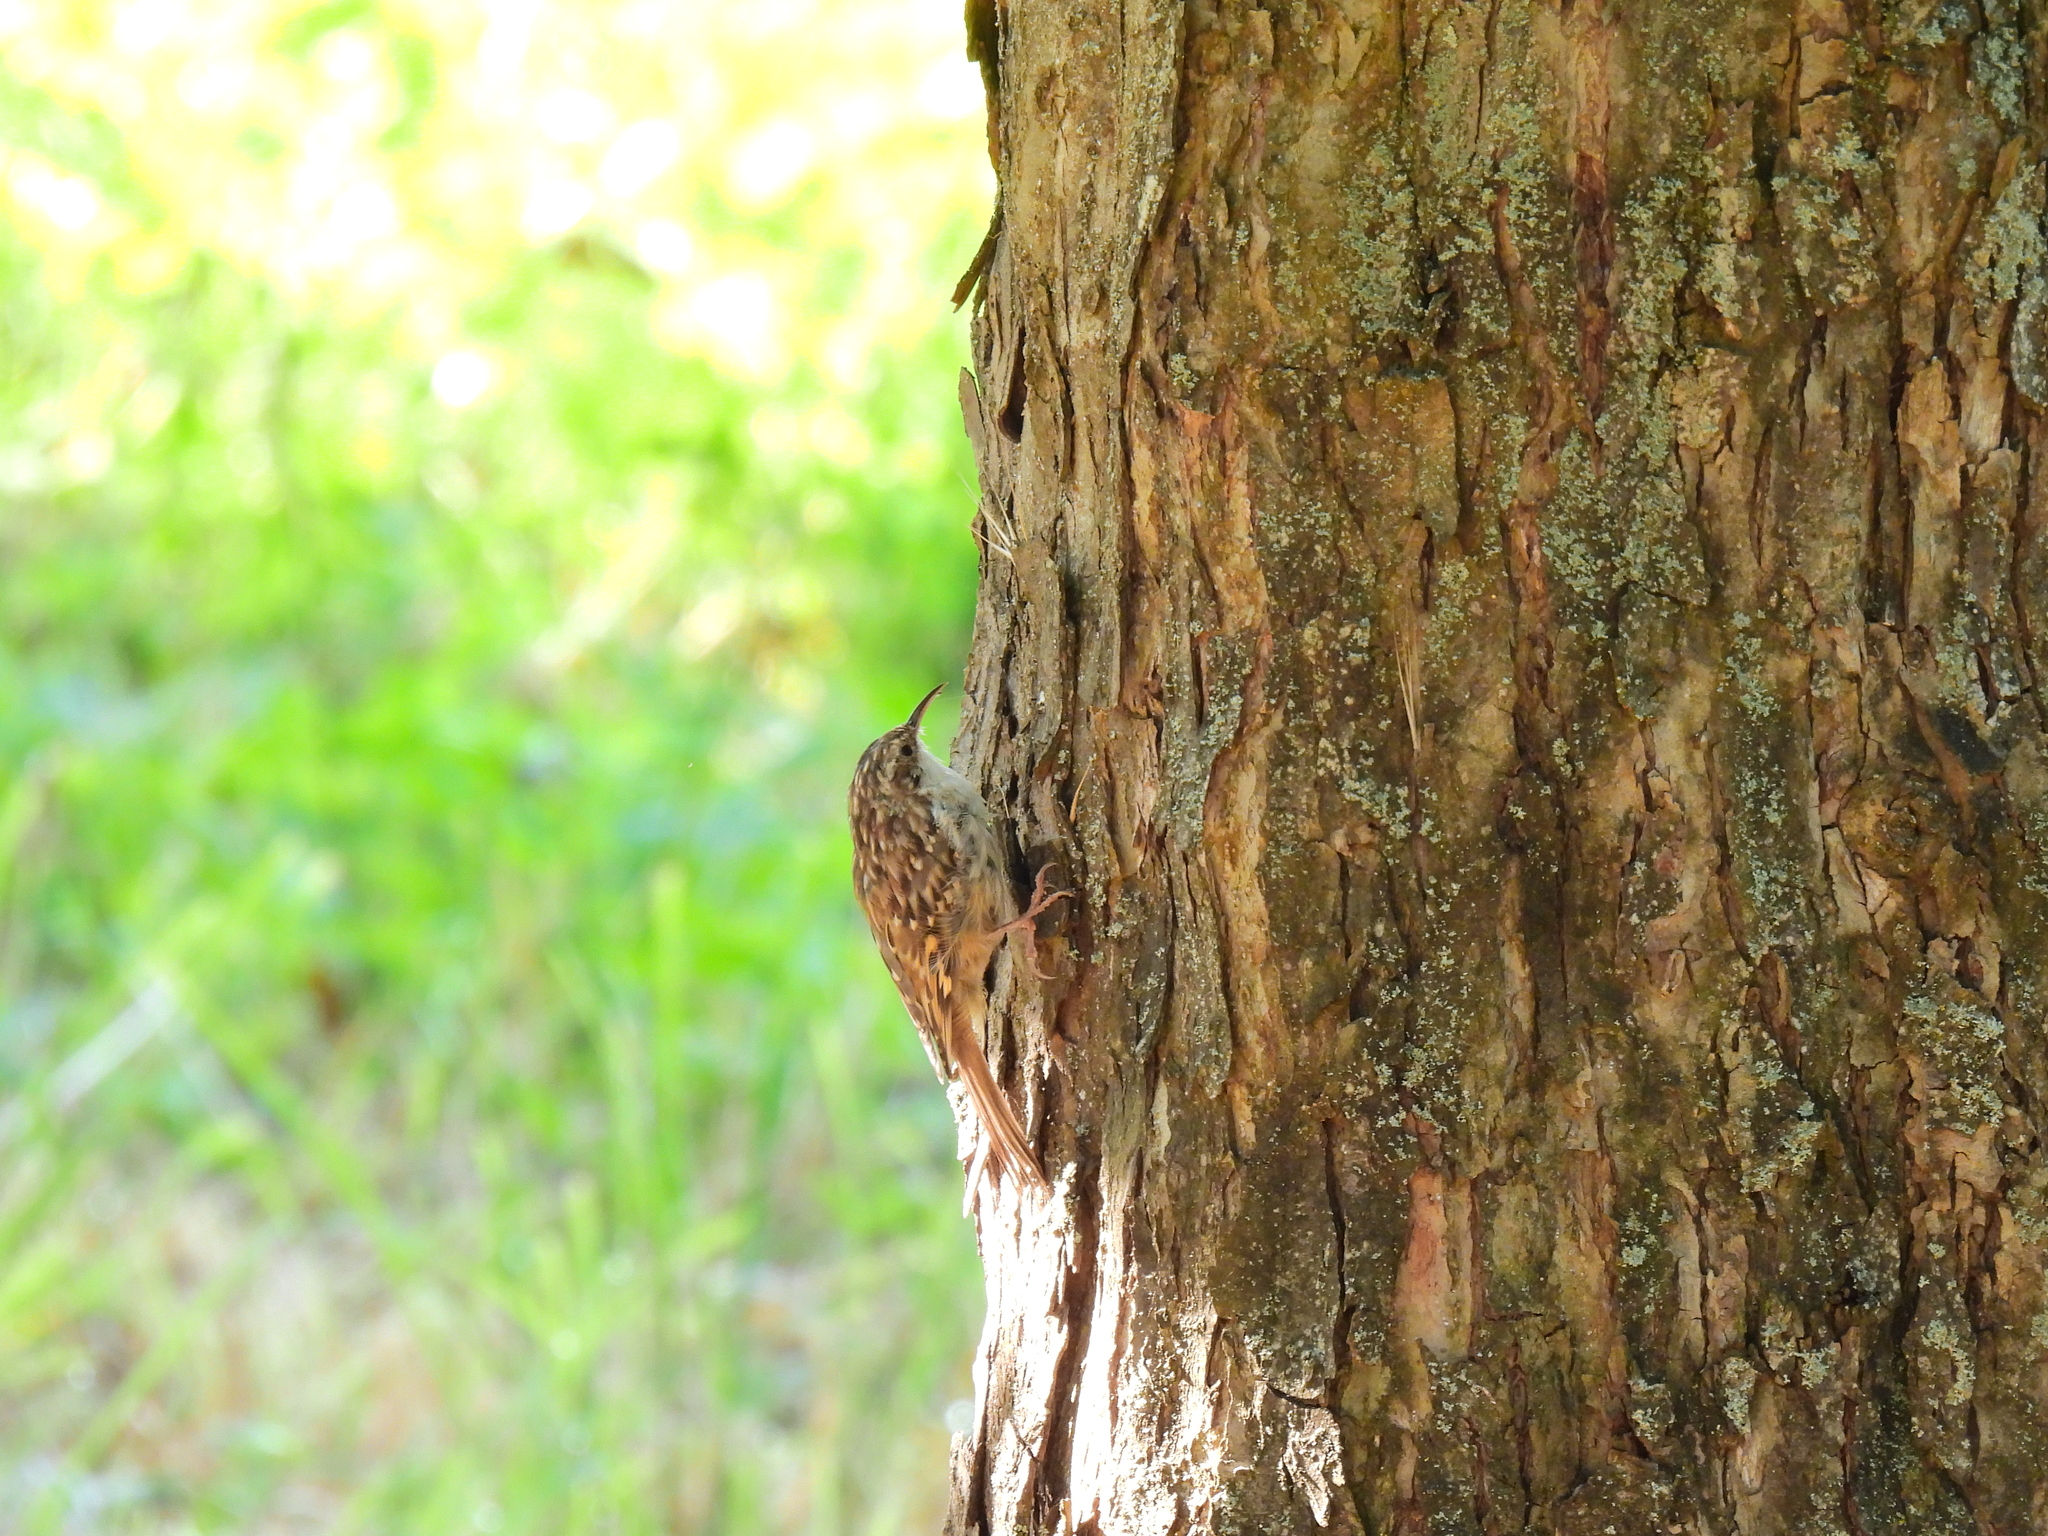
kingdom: Animalia
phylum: Chordata
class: Aves
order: Passeriformes
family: Certhiidae
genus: Certhia
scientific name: Certhia brachydactyla
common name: Short-toed treecreeper
